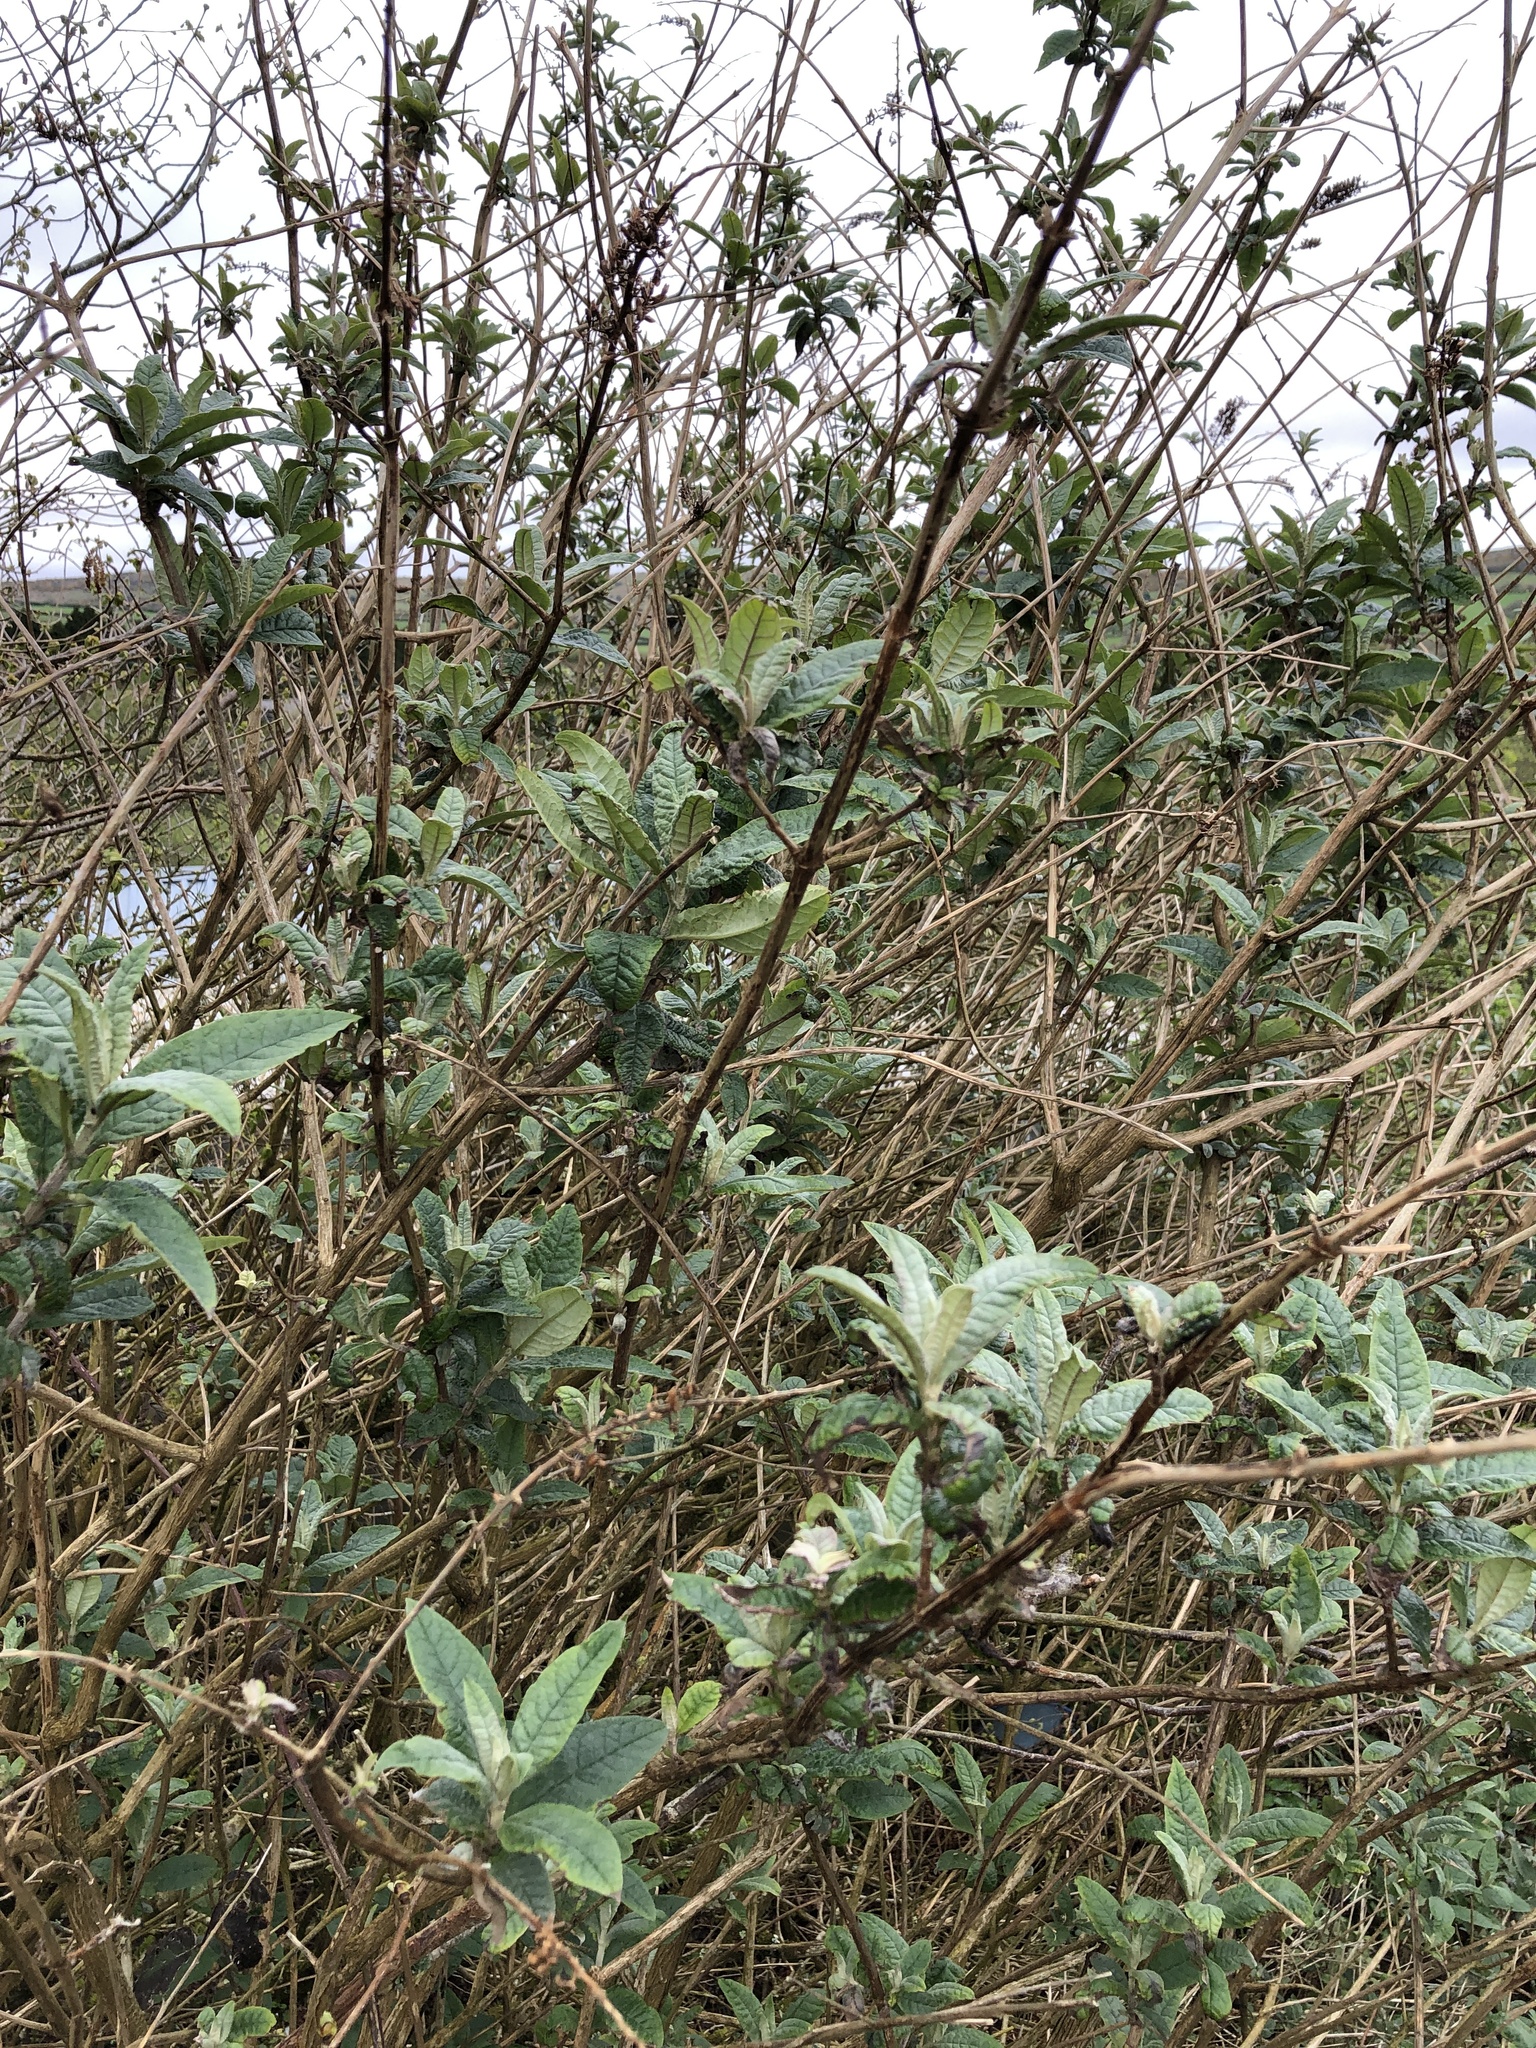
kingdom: Plantae
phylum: Tracheophyta
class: Magnoliopsida
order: Lamiales
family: Scrophulariaceae
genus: Buddleja
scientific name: Buddleja davidii
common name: Butterfly-bush
